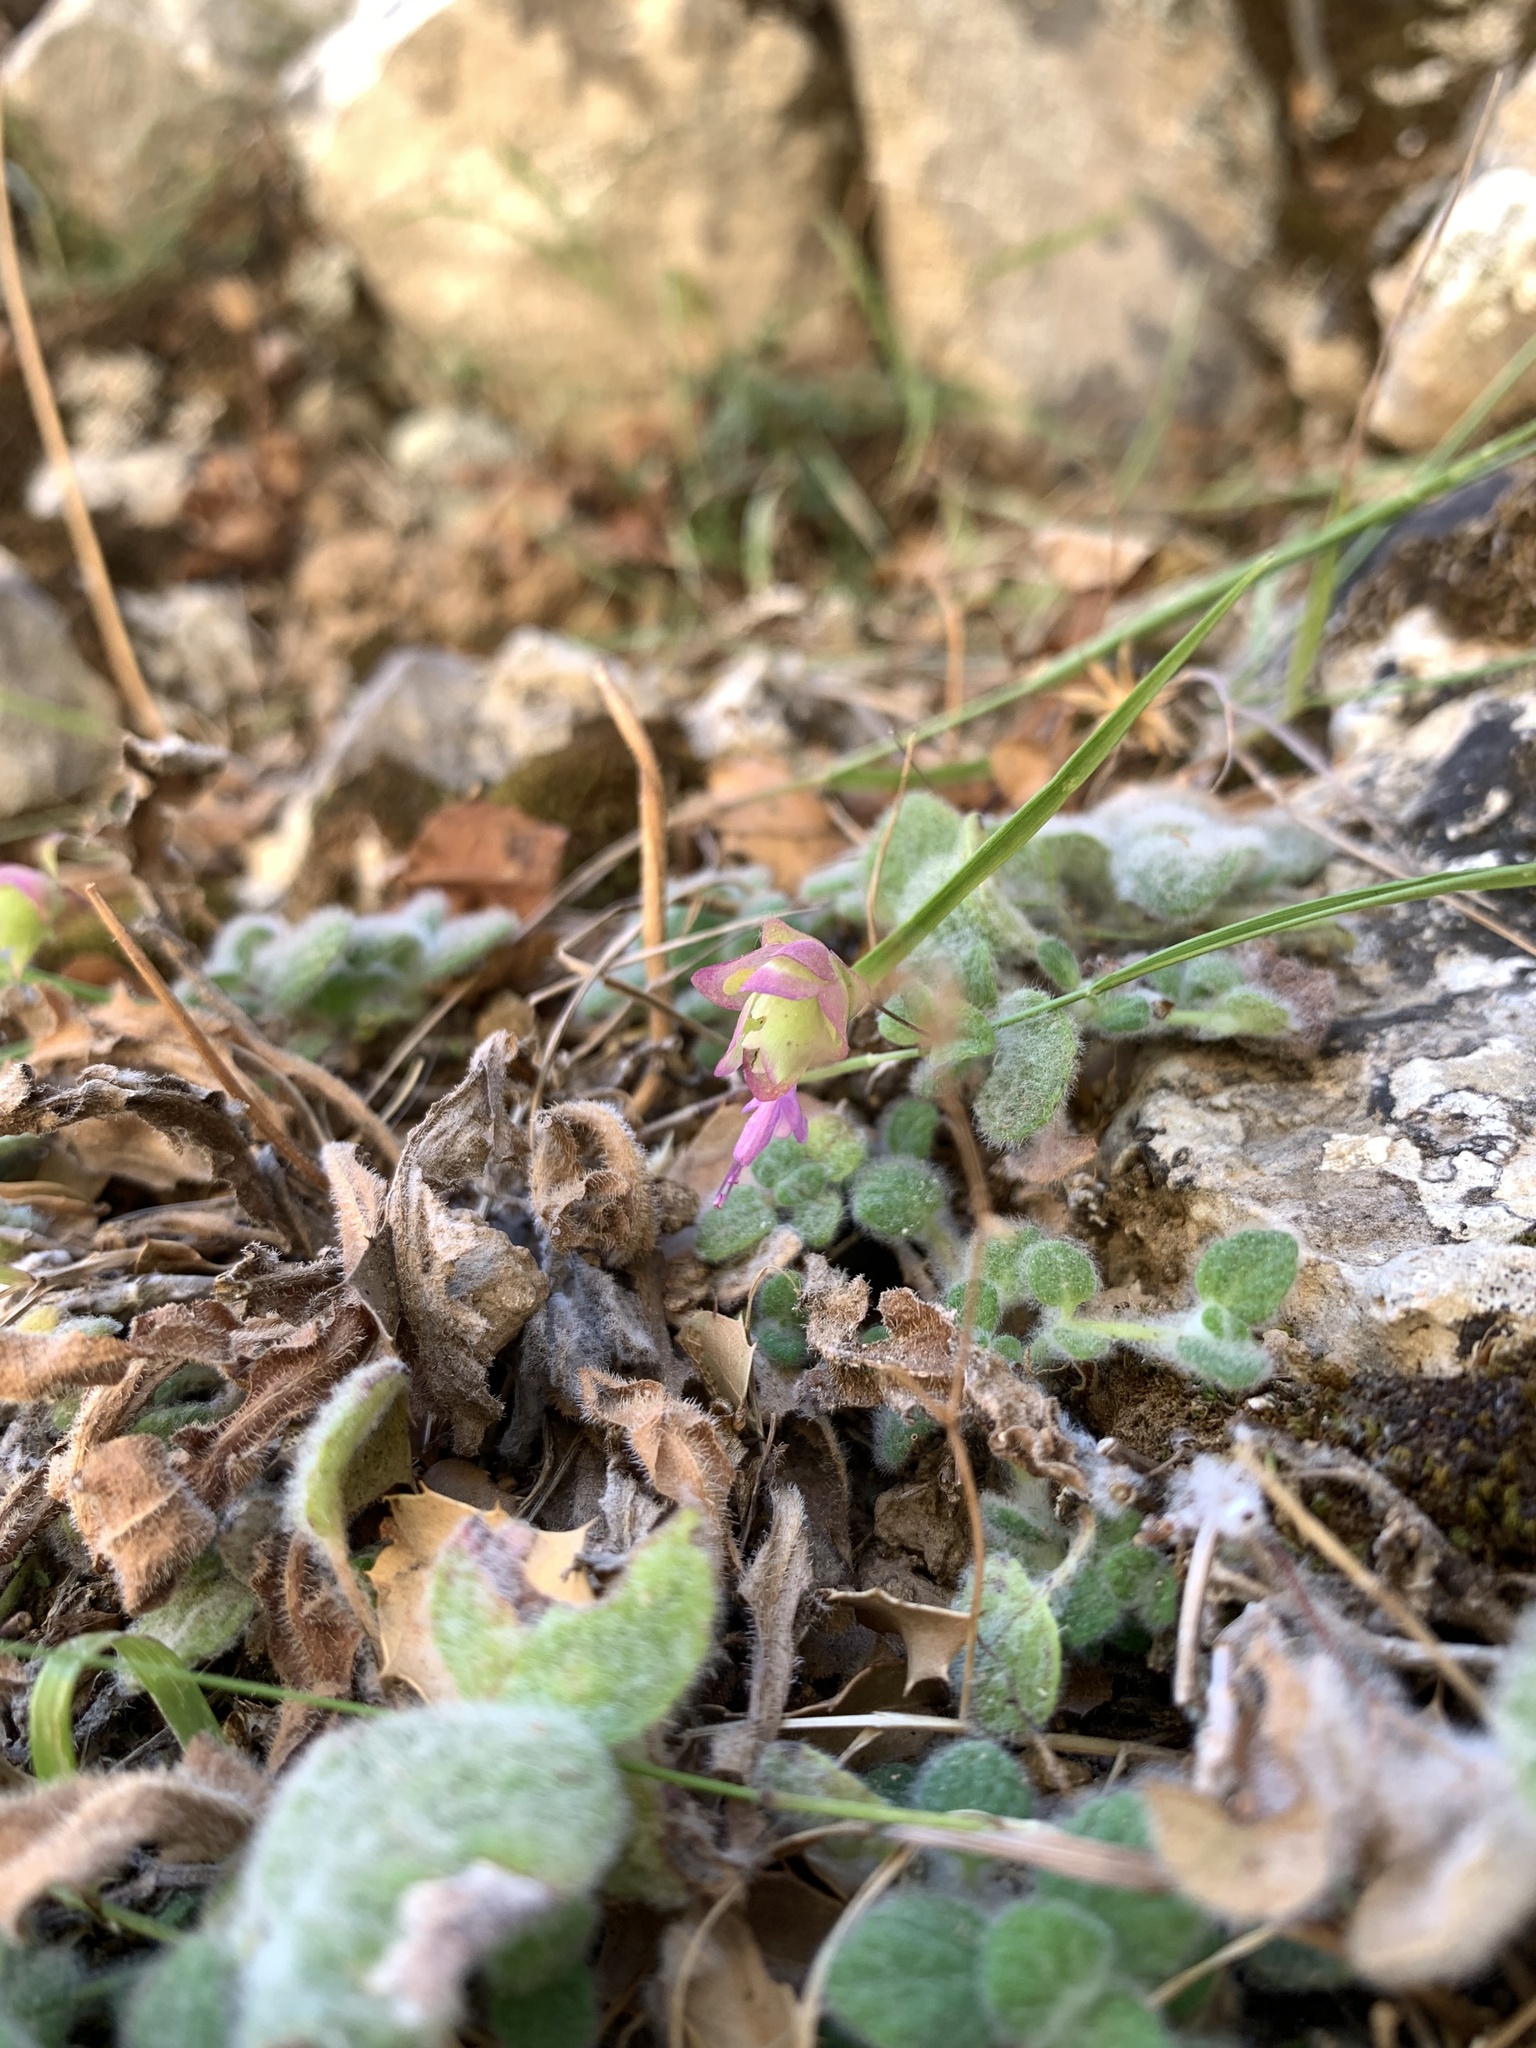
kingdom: Plantae
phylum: Tracheophyta
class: Magnoliopsida
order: Lamiales
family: Lamiaceae
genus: Origanum
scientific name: Origanum dictamnus
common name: Cretan dittany
